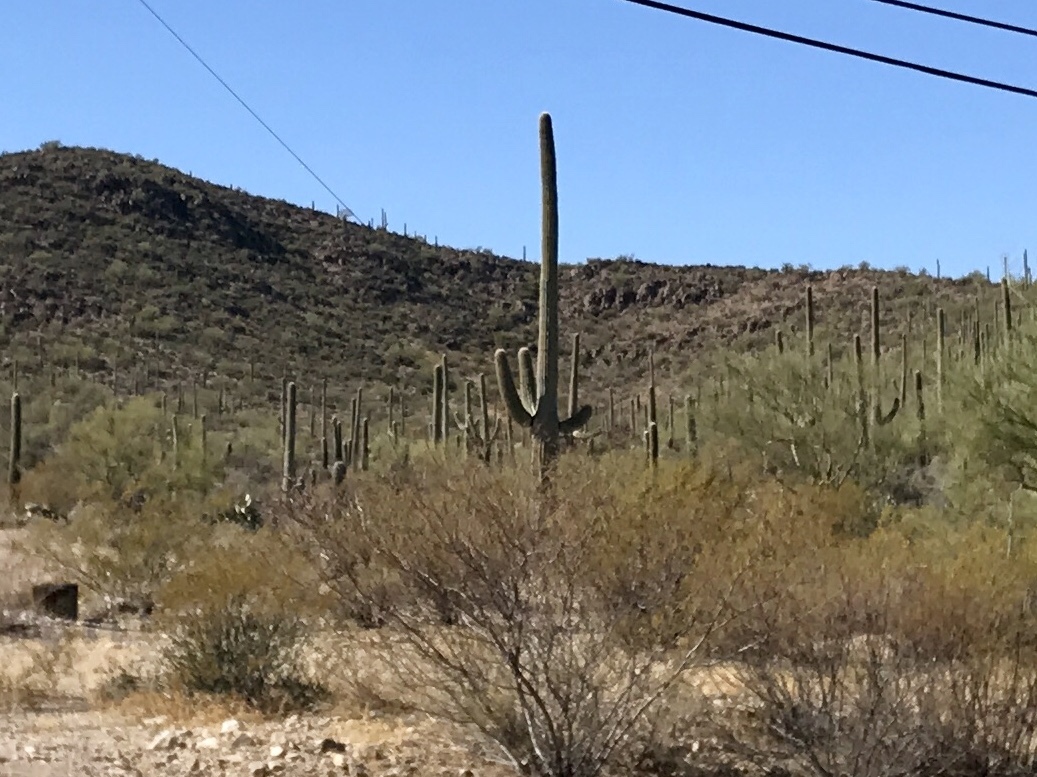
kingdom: Plantae
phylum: Tracheophyta
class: Magnoliopsida
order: Caryophyllales
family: Cactaceae
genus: Carnegiea
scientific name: Carnegiea gigantea
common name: Saguaro
